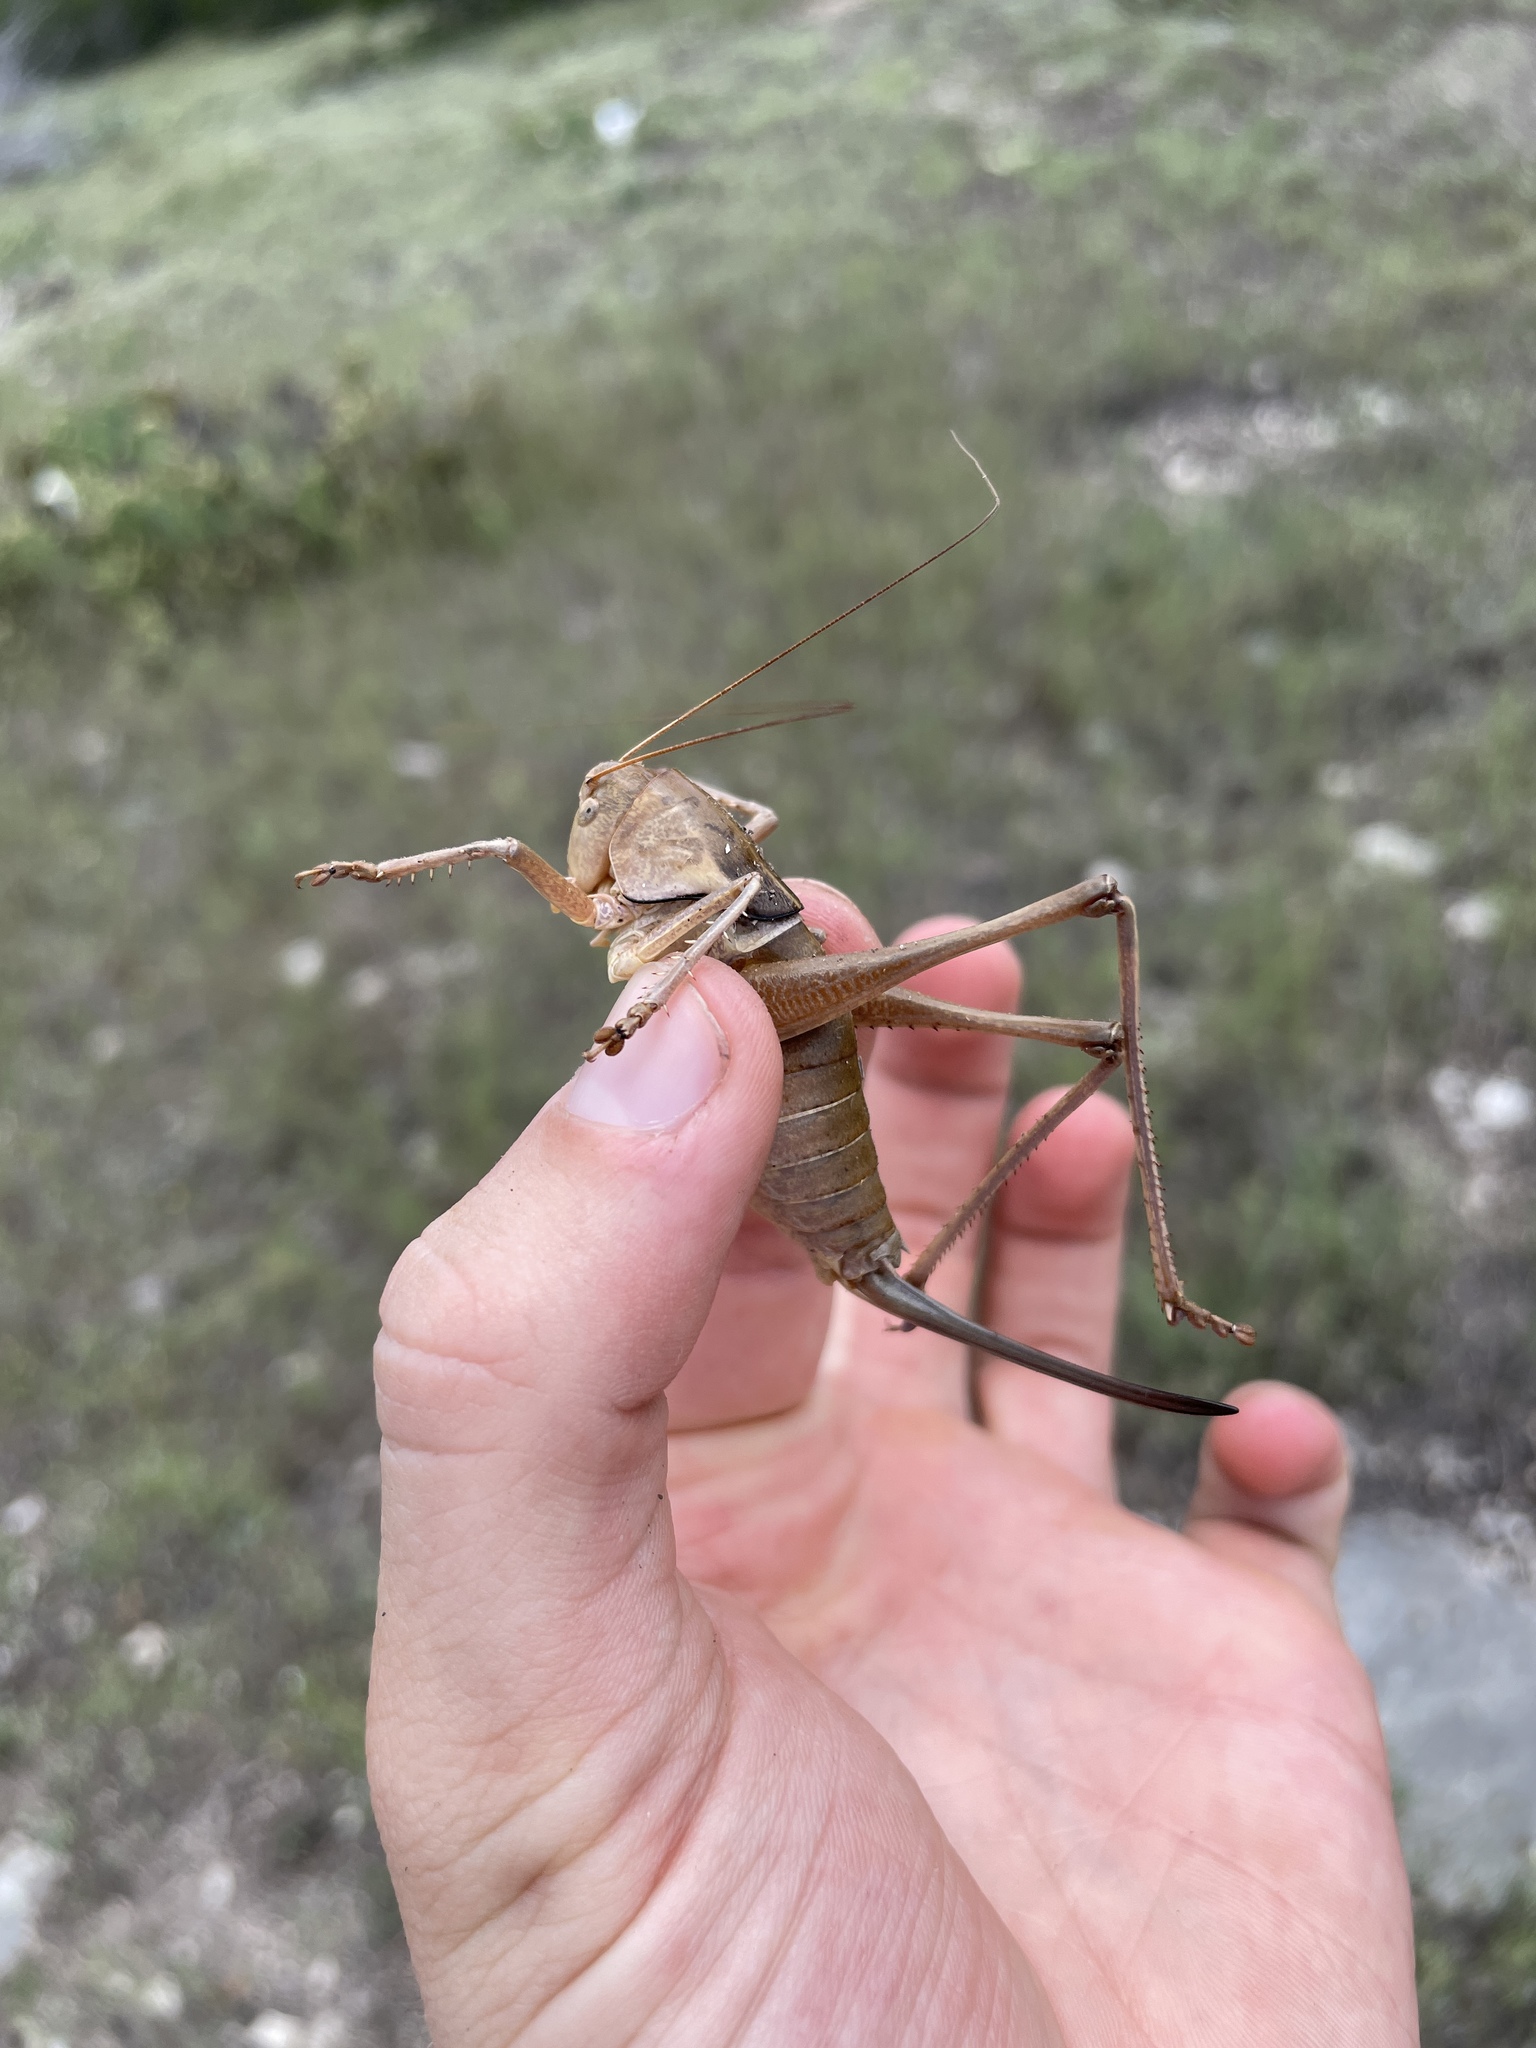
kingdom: Animalia
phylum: Arthropoda
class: Insecta
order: Orthoptera
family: Tettigoniidae
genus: Pediodectes
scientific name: Pediodectes haldemanii
